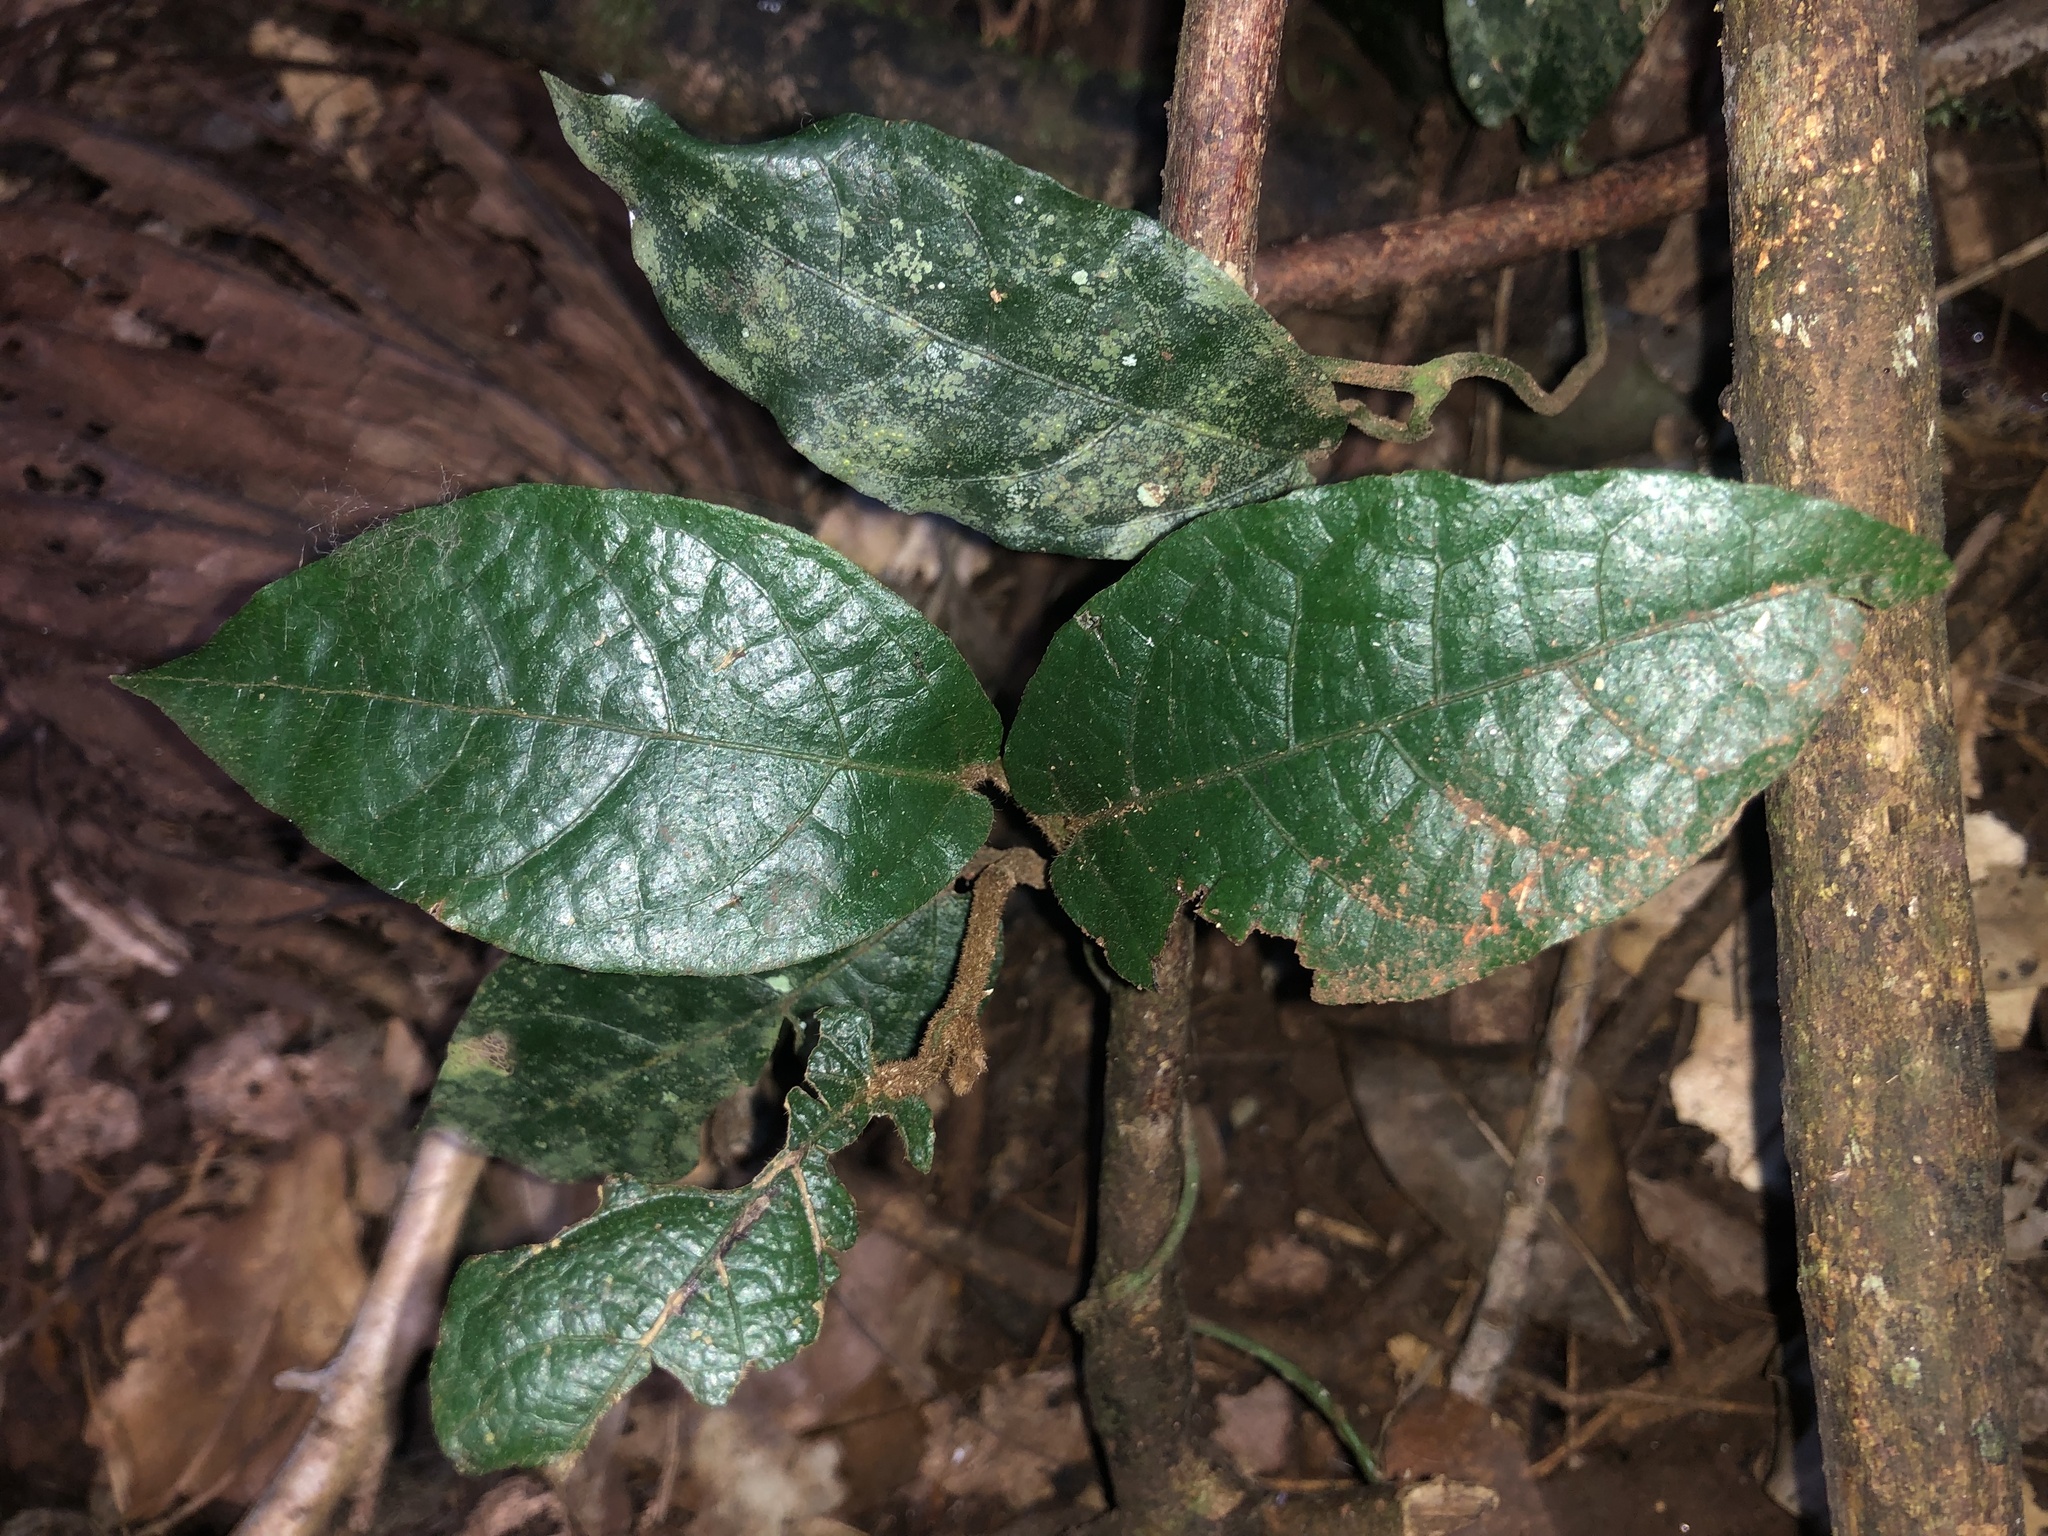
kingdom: Plantae
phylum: Tracheophyta
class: Magnoliopsida
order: Piperales
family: Aristolochiaceae
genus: Aristolochia
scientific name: Aristolochia praevenosa
